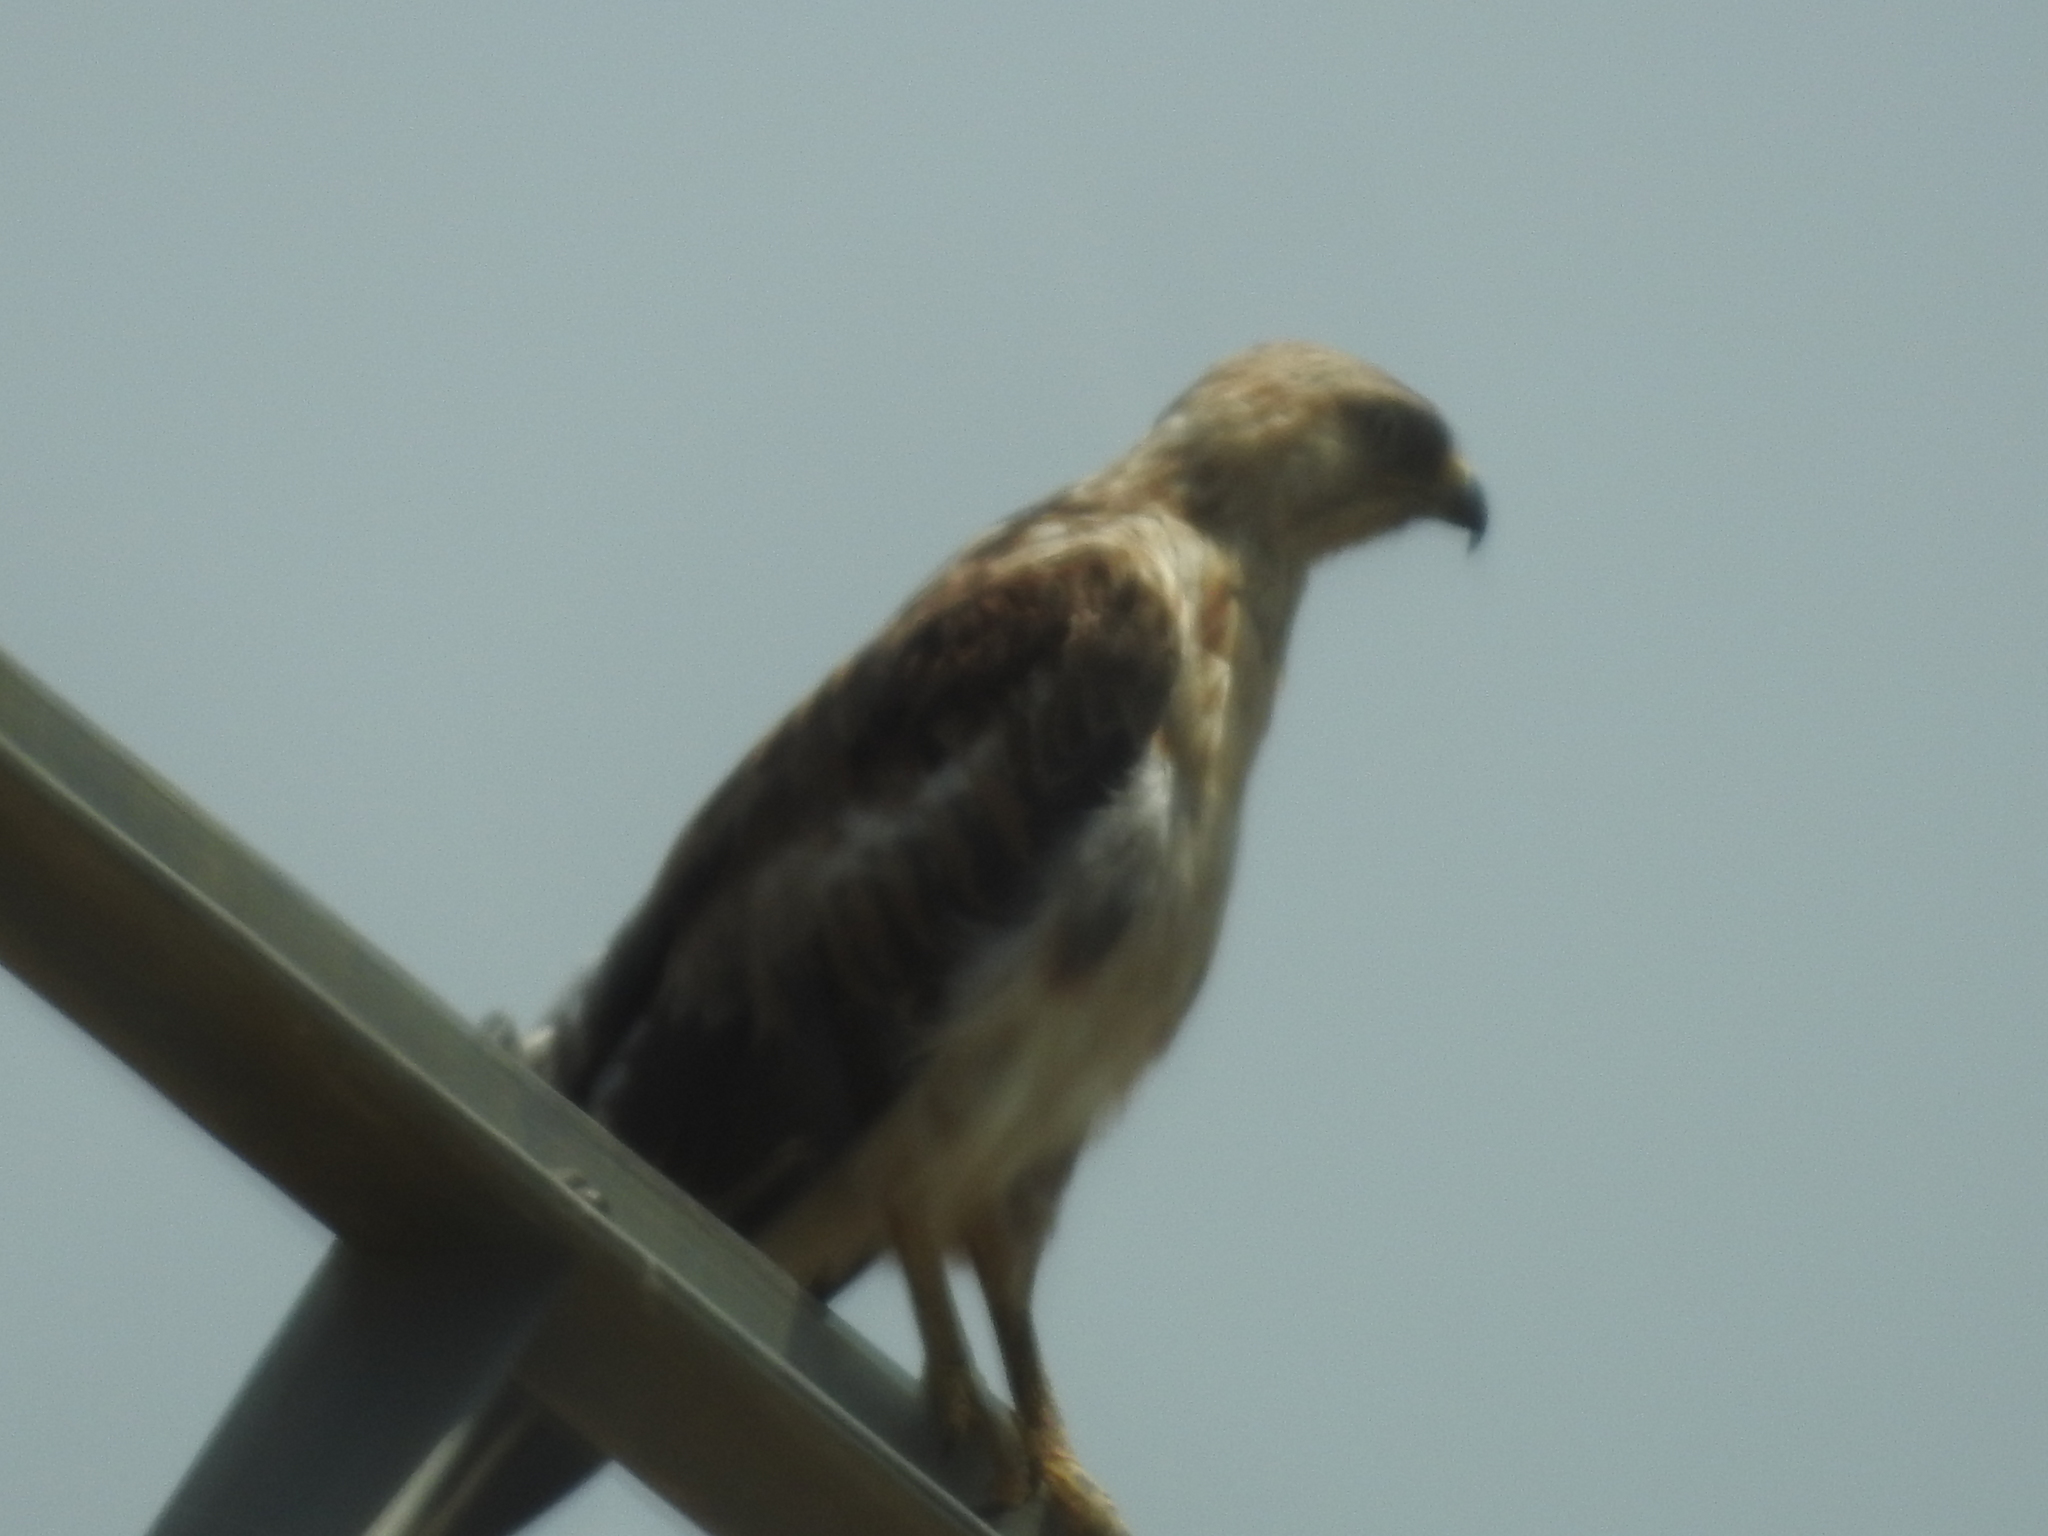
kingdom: Animalia
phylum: Chordata
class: Aves
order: Accipitriformes
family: Accipitridae
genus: Buteo
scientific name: Buteo rufinus
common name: Long-legged buzzard
